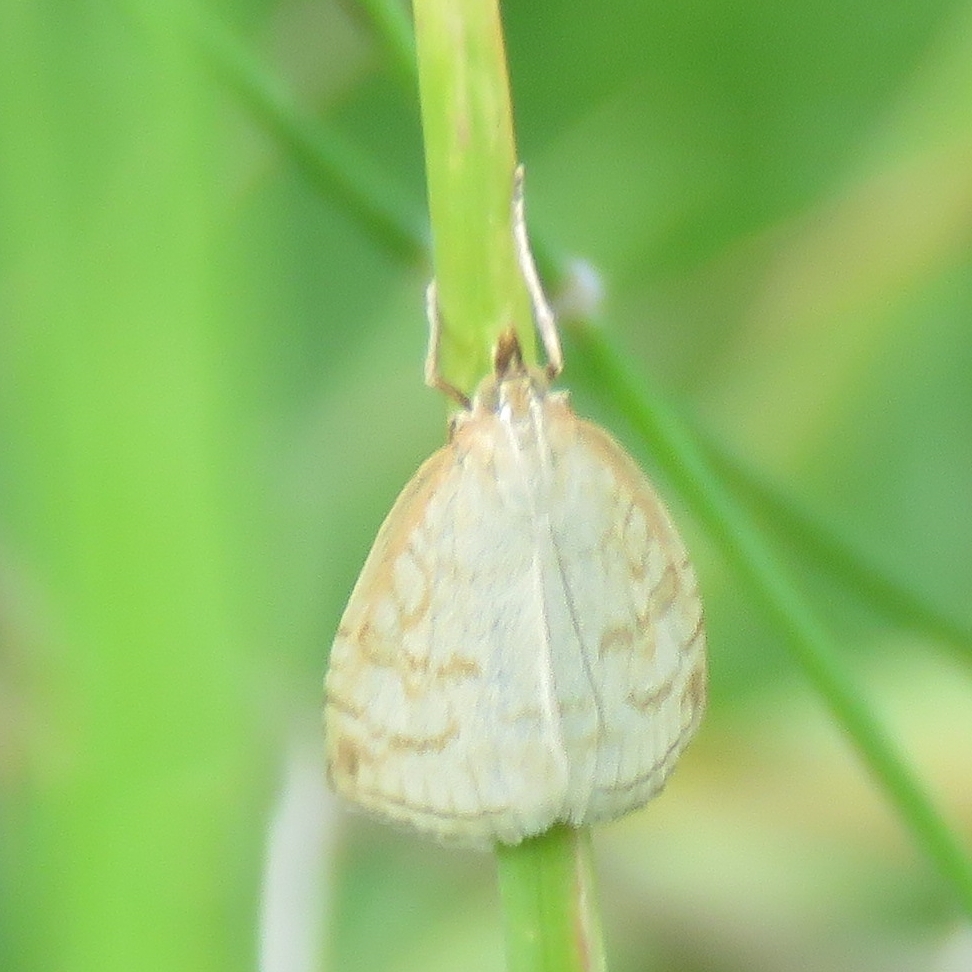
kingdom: Animalia
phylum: Arthropoda
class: Insecta
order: Lepidoptera
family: Crambidae
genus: Udea
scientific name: Udea lutealis
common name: Pale straw pearl
